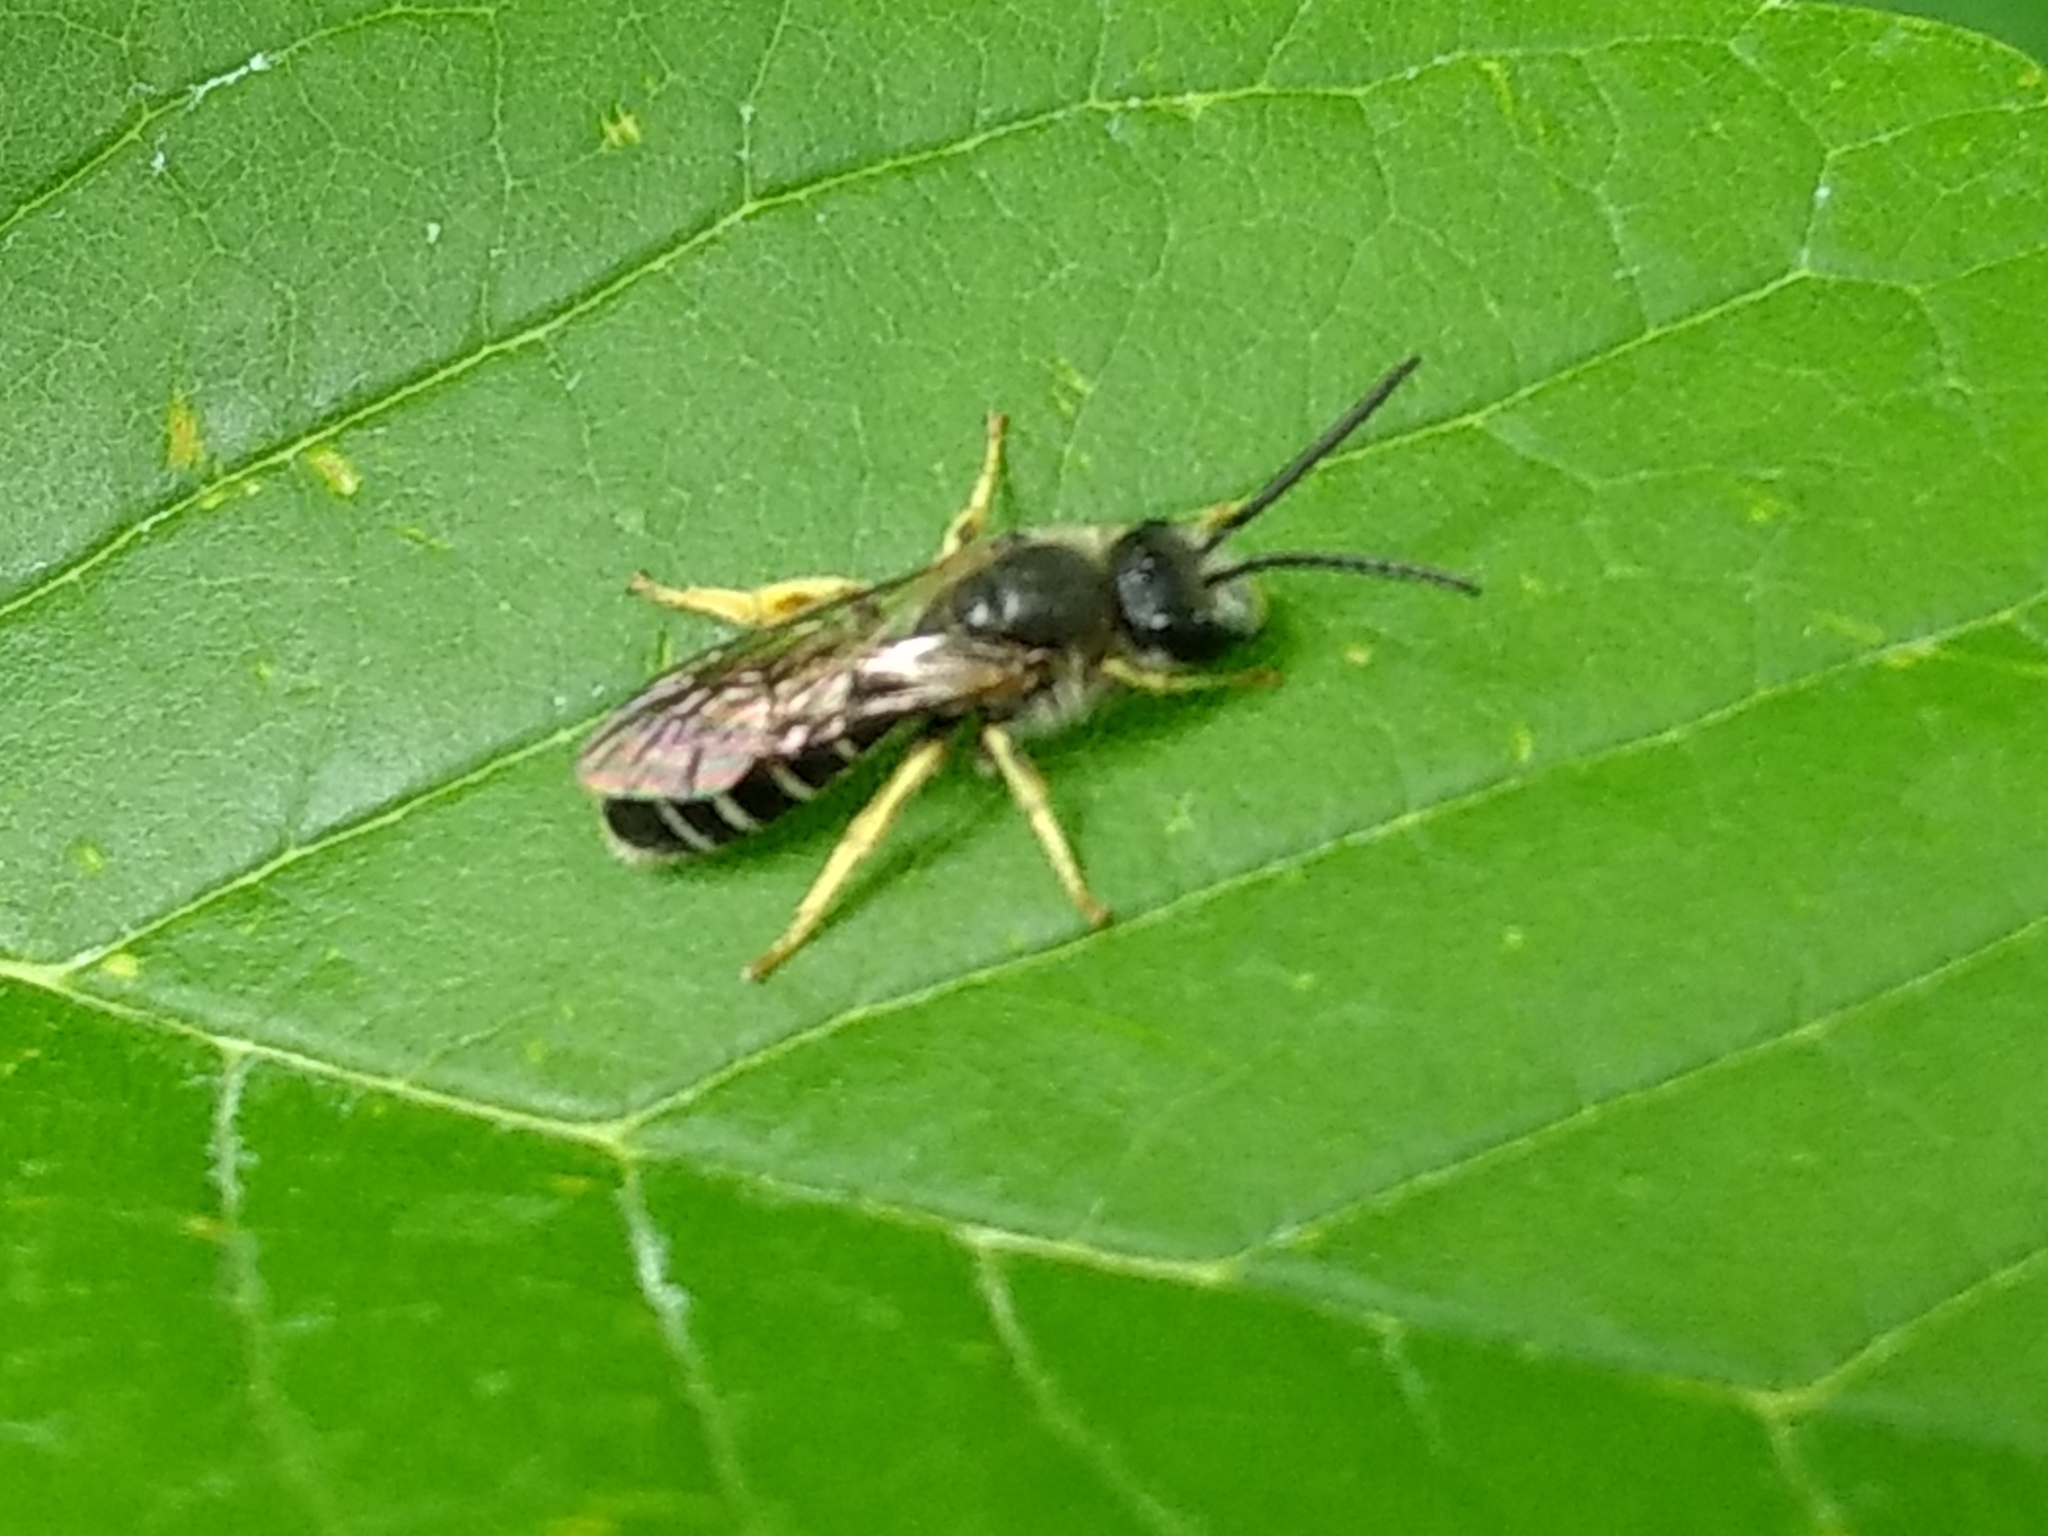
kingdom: Animalia
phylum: Arthropoda
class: Insecta
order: Hymenoptera
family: Halictidae
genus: Halictus
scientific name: Halictus rubicundus
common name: Orange-legged furrow bee
